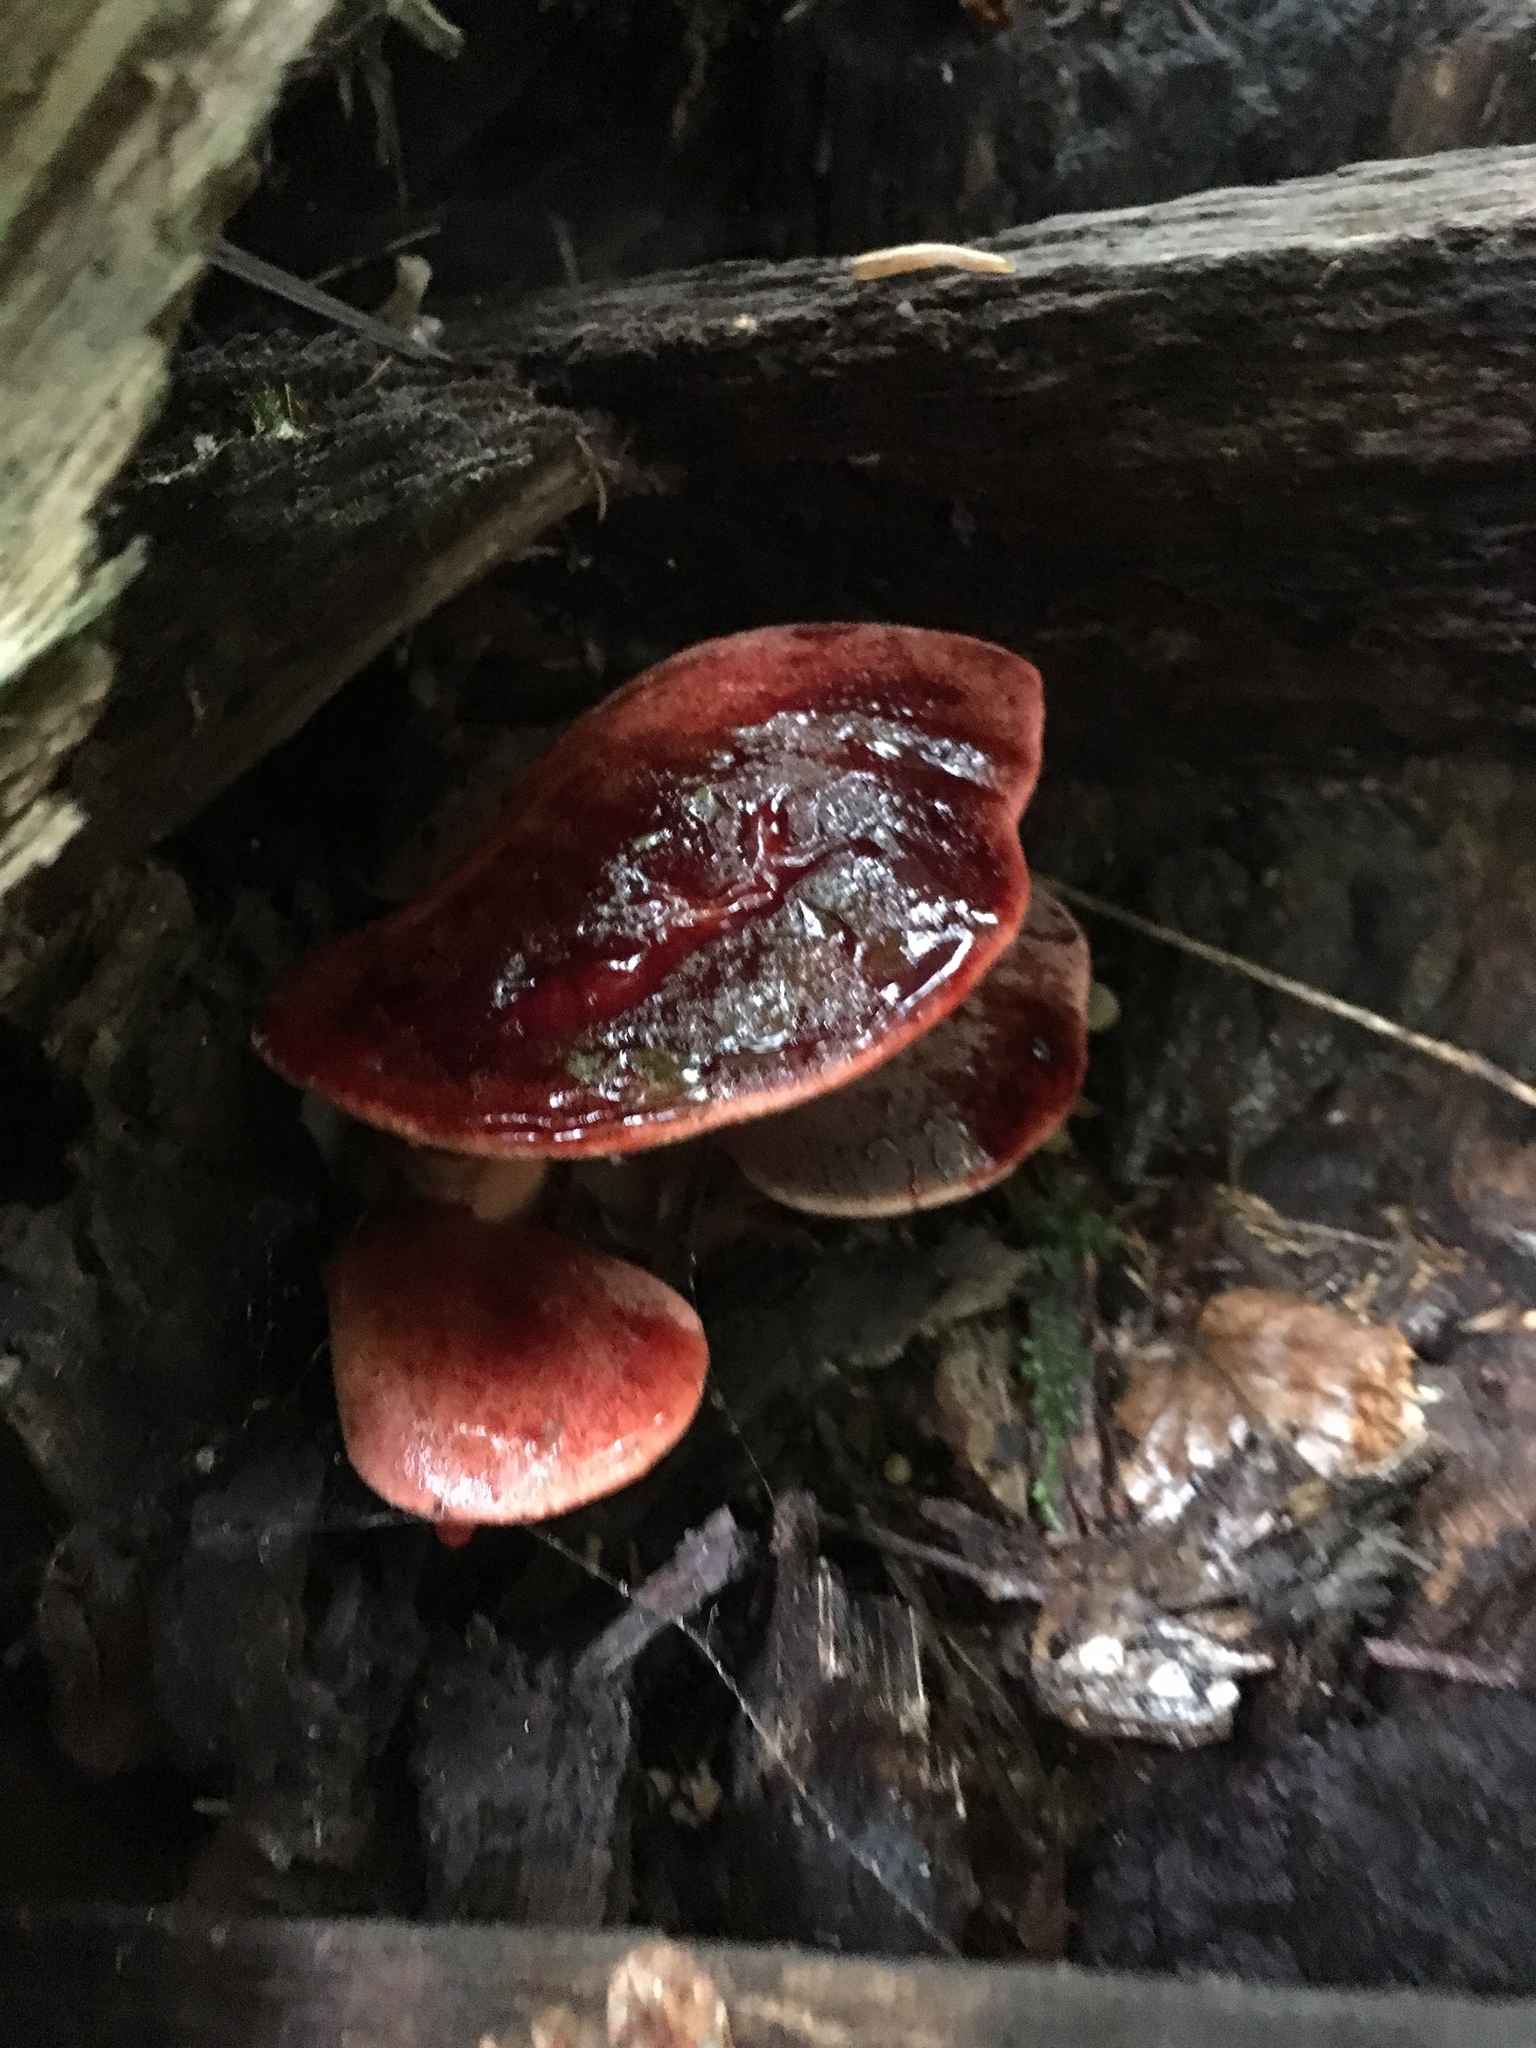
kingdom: Fungi
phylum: Basidiomycota
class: Agaricomycetes
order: Agaricales
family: Fistulinaceae
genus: Fistulina
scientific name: Fistulina hepatica
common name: Beef-steak fungus
